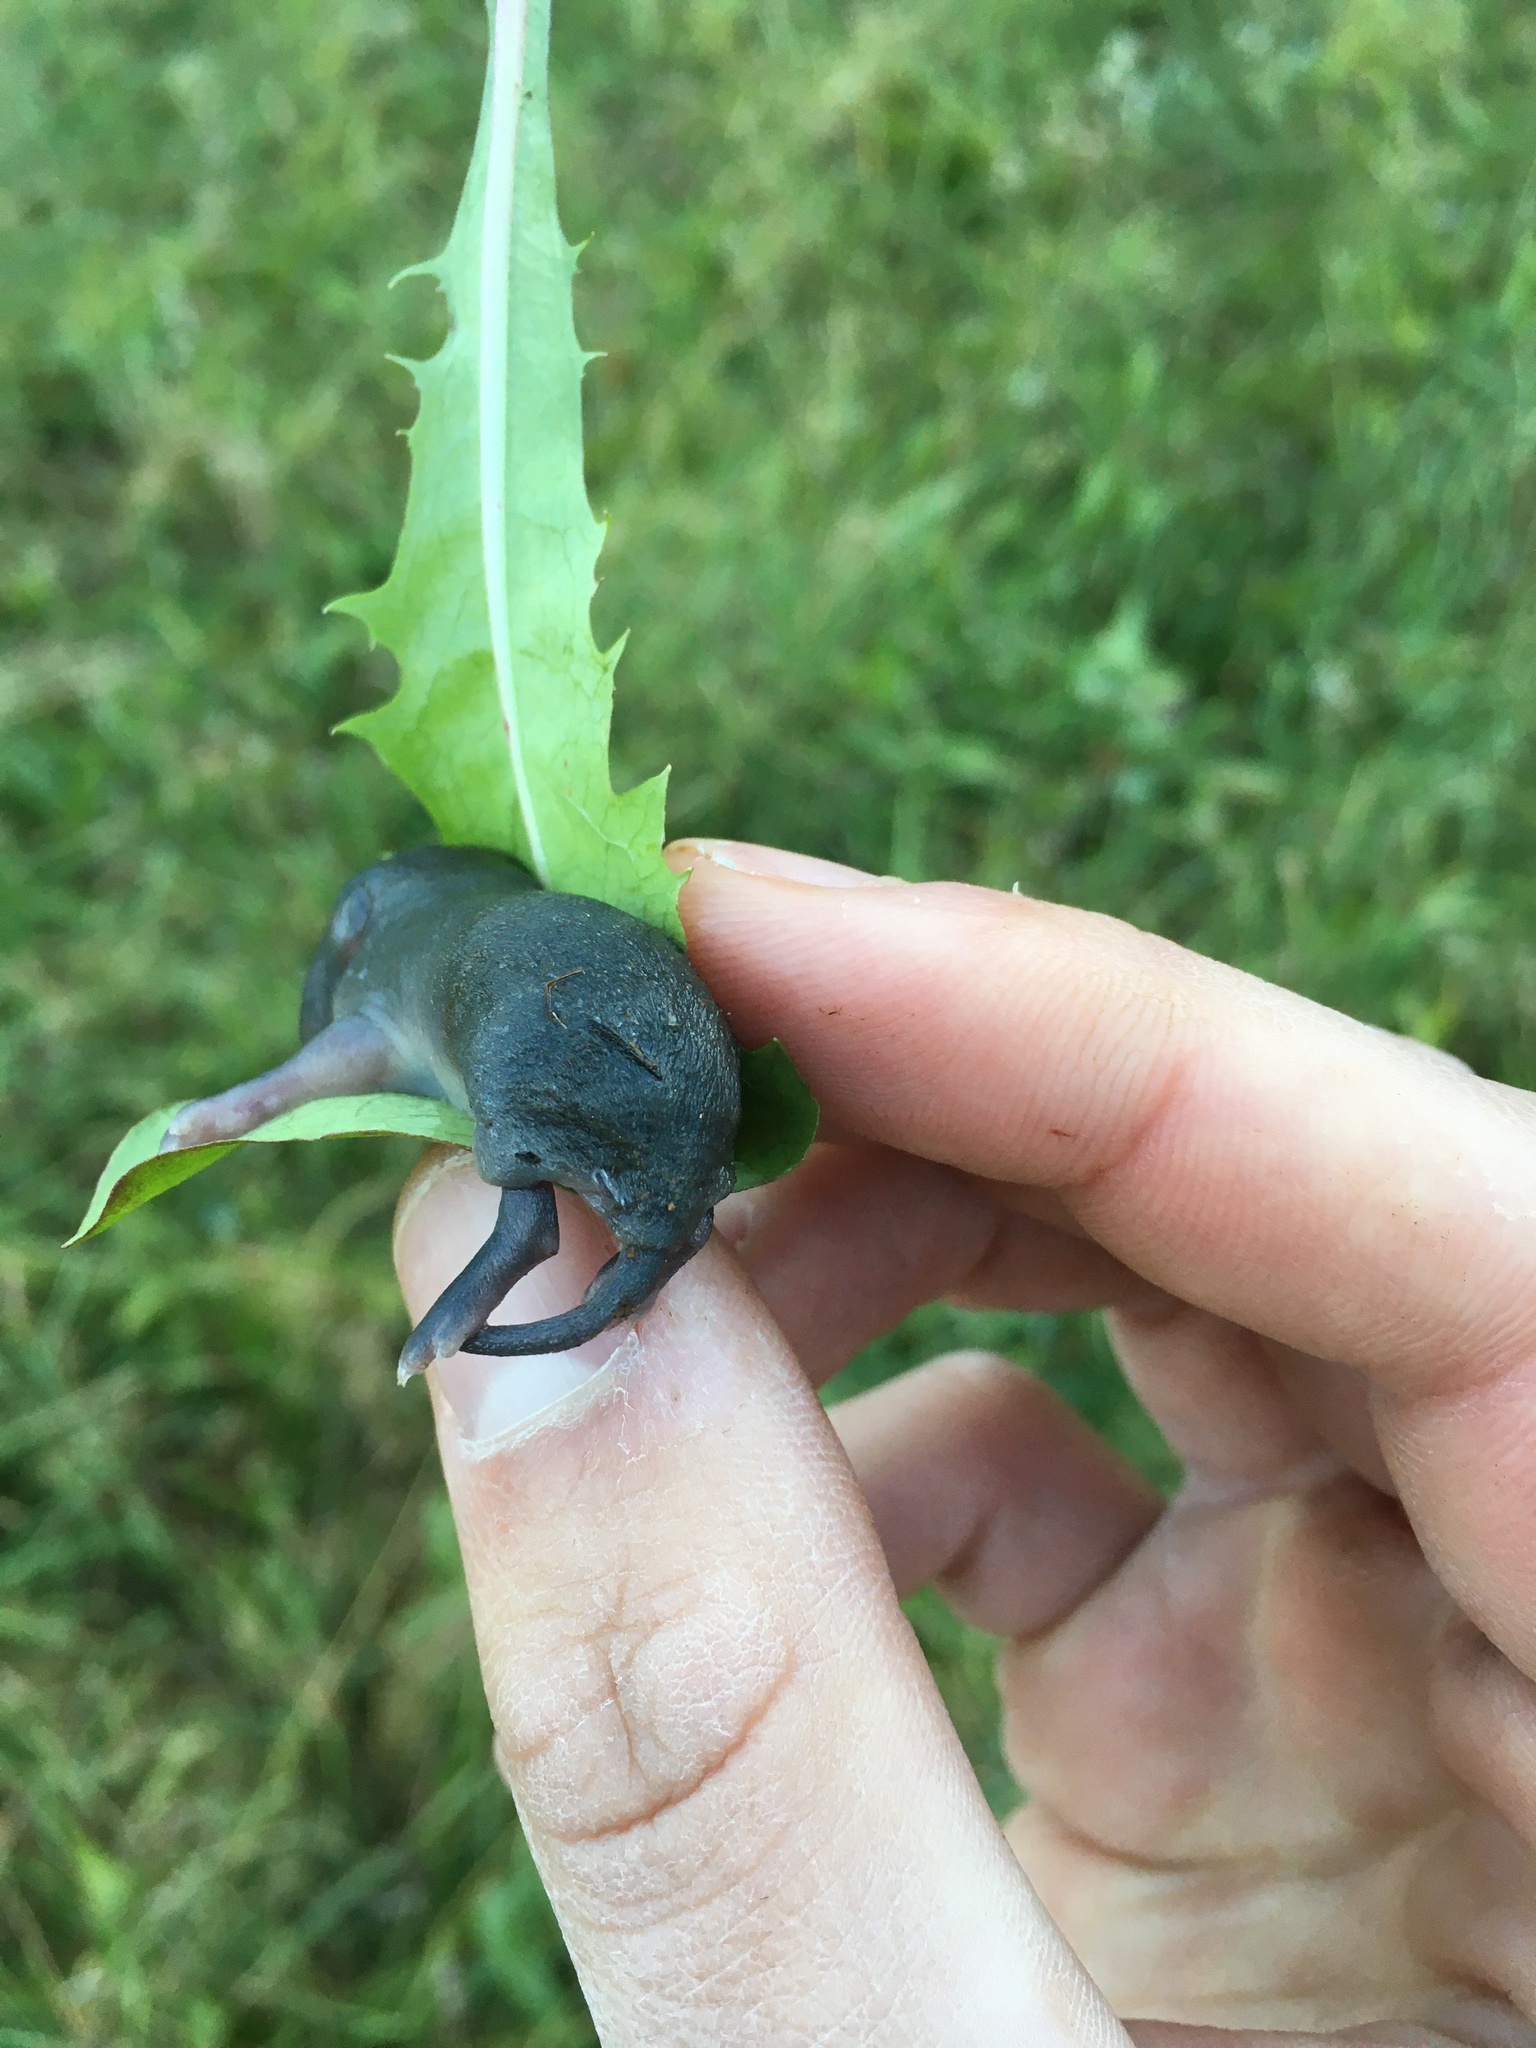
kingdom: Animalia
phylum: Chordata
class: Mammalia
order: Rodentia
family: Cricetidae
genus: Microtus
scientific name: Microtus pennsylvanicus
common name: Meadow vole
